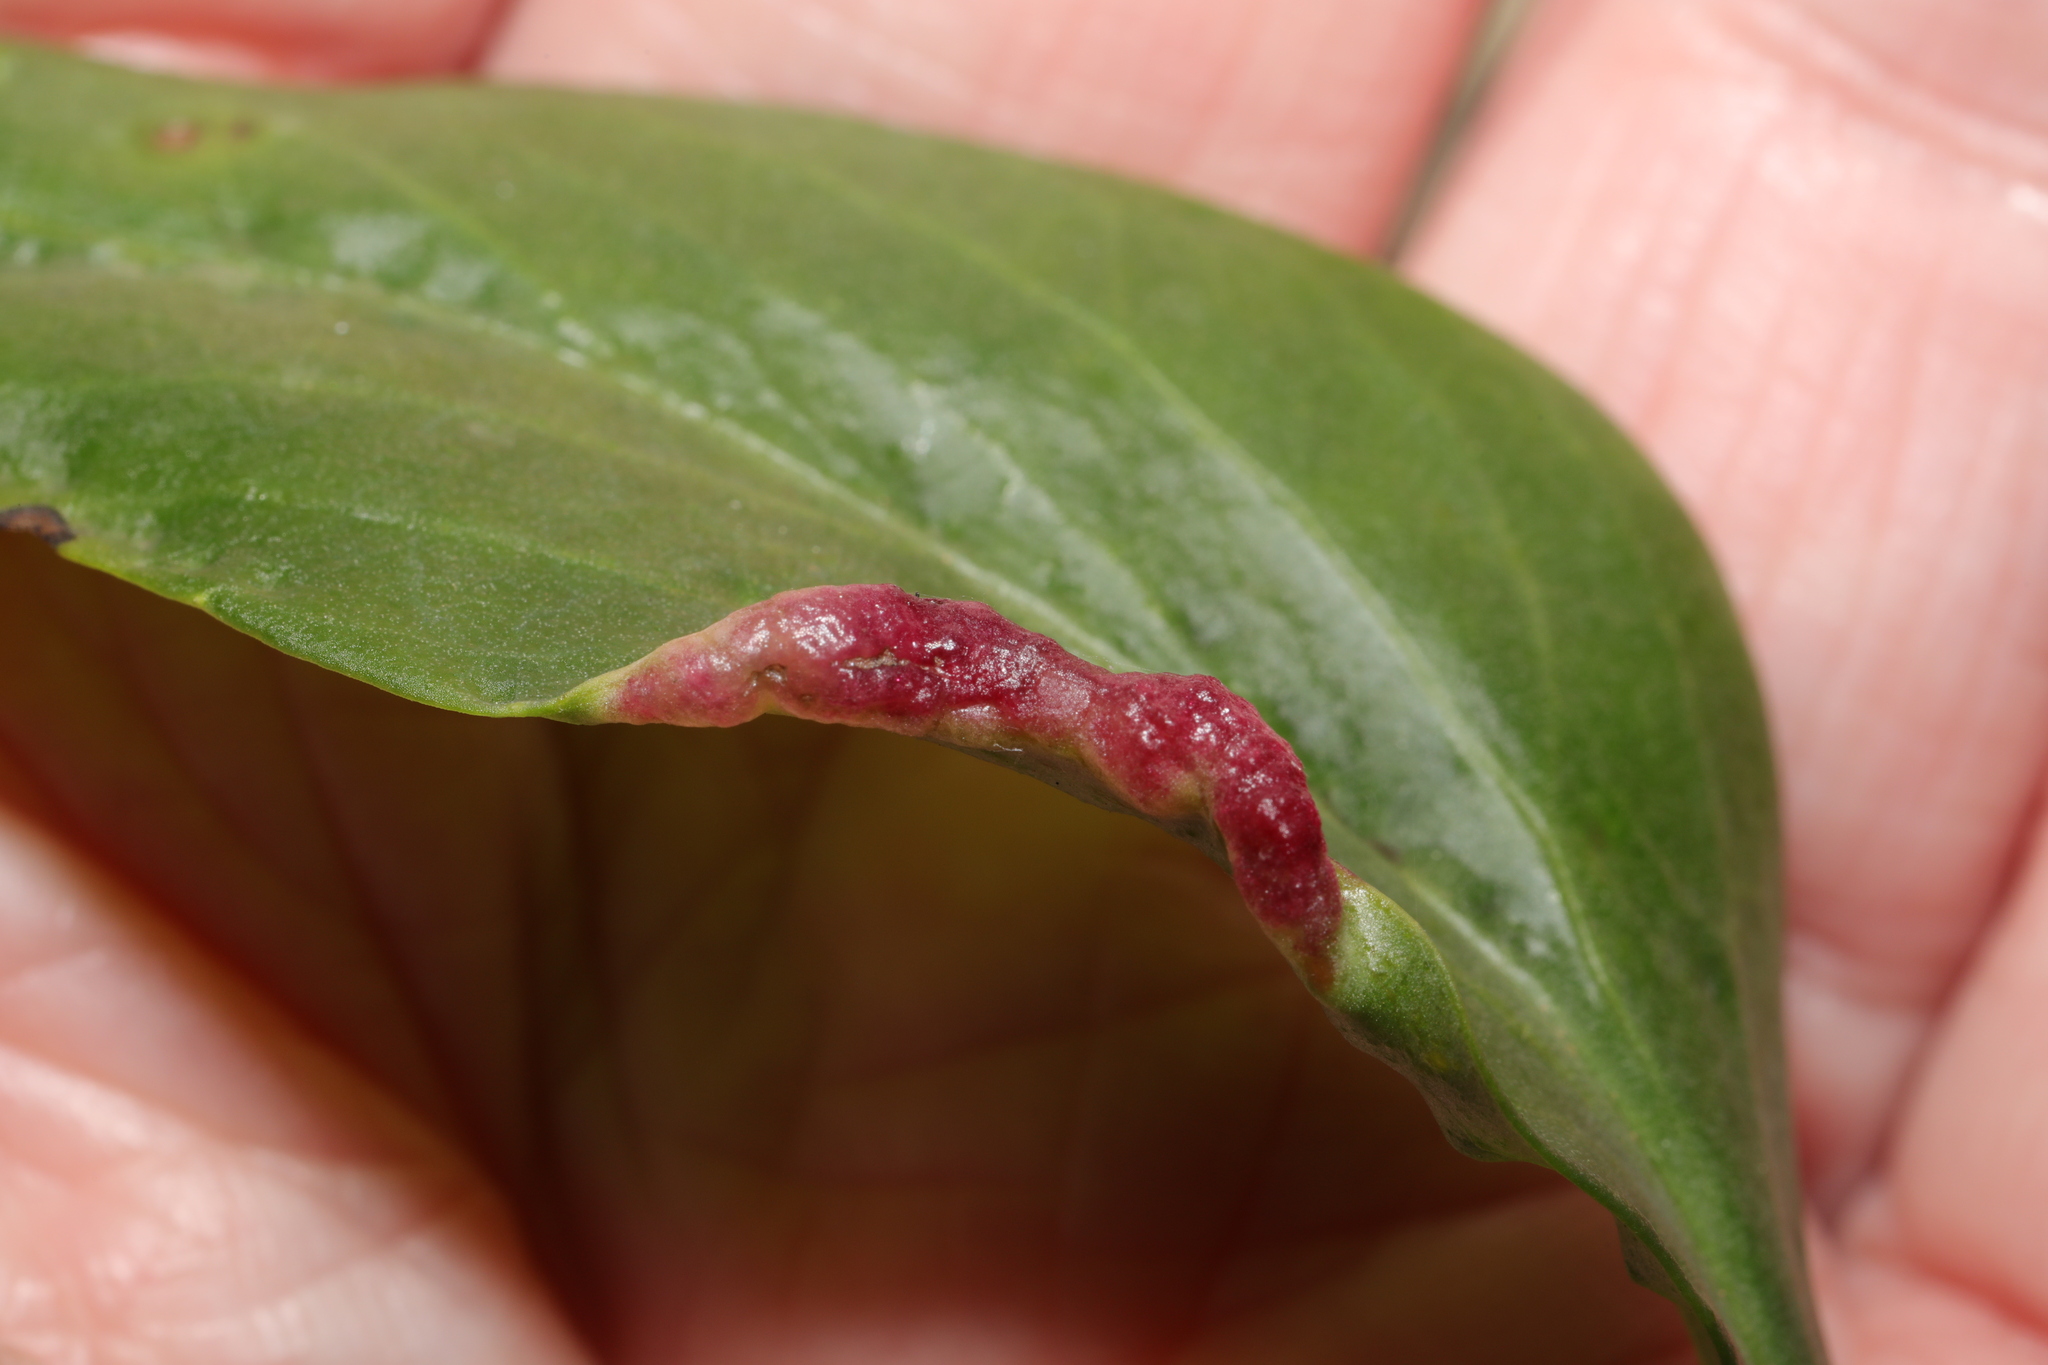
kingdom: Animalia
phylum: Arthropoda
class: Insecta
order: Hemiptera
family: Triozidae
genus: Trioza
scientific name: Trioza centranthi
